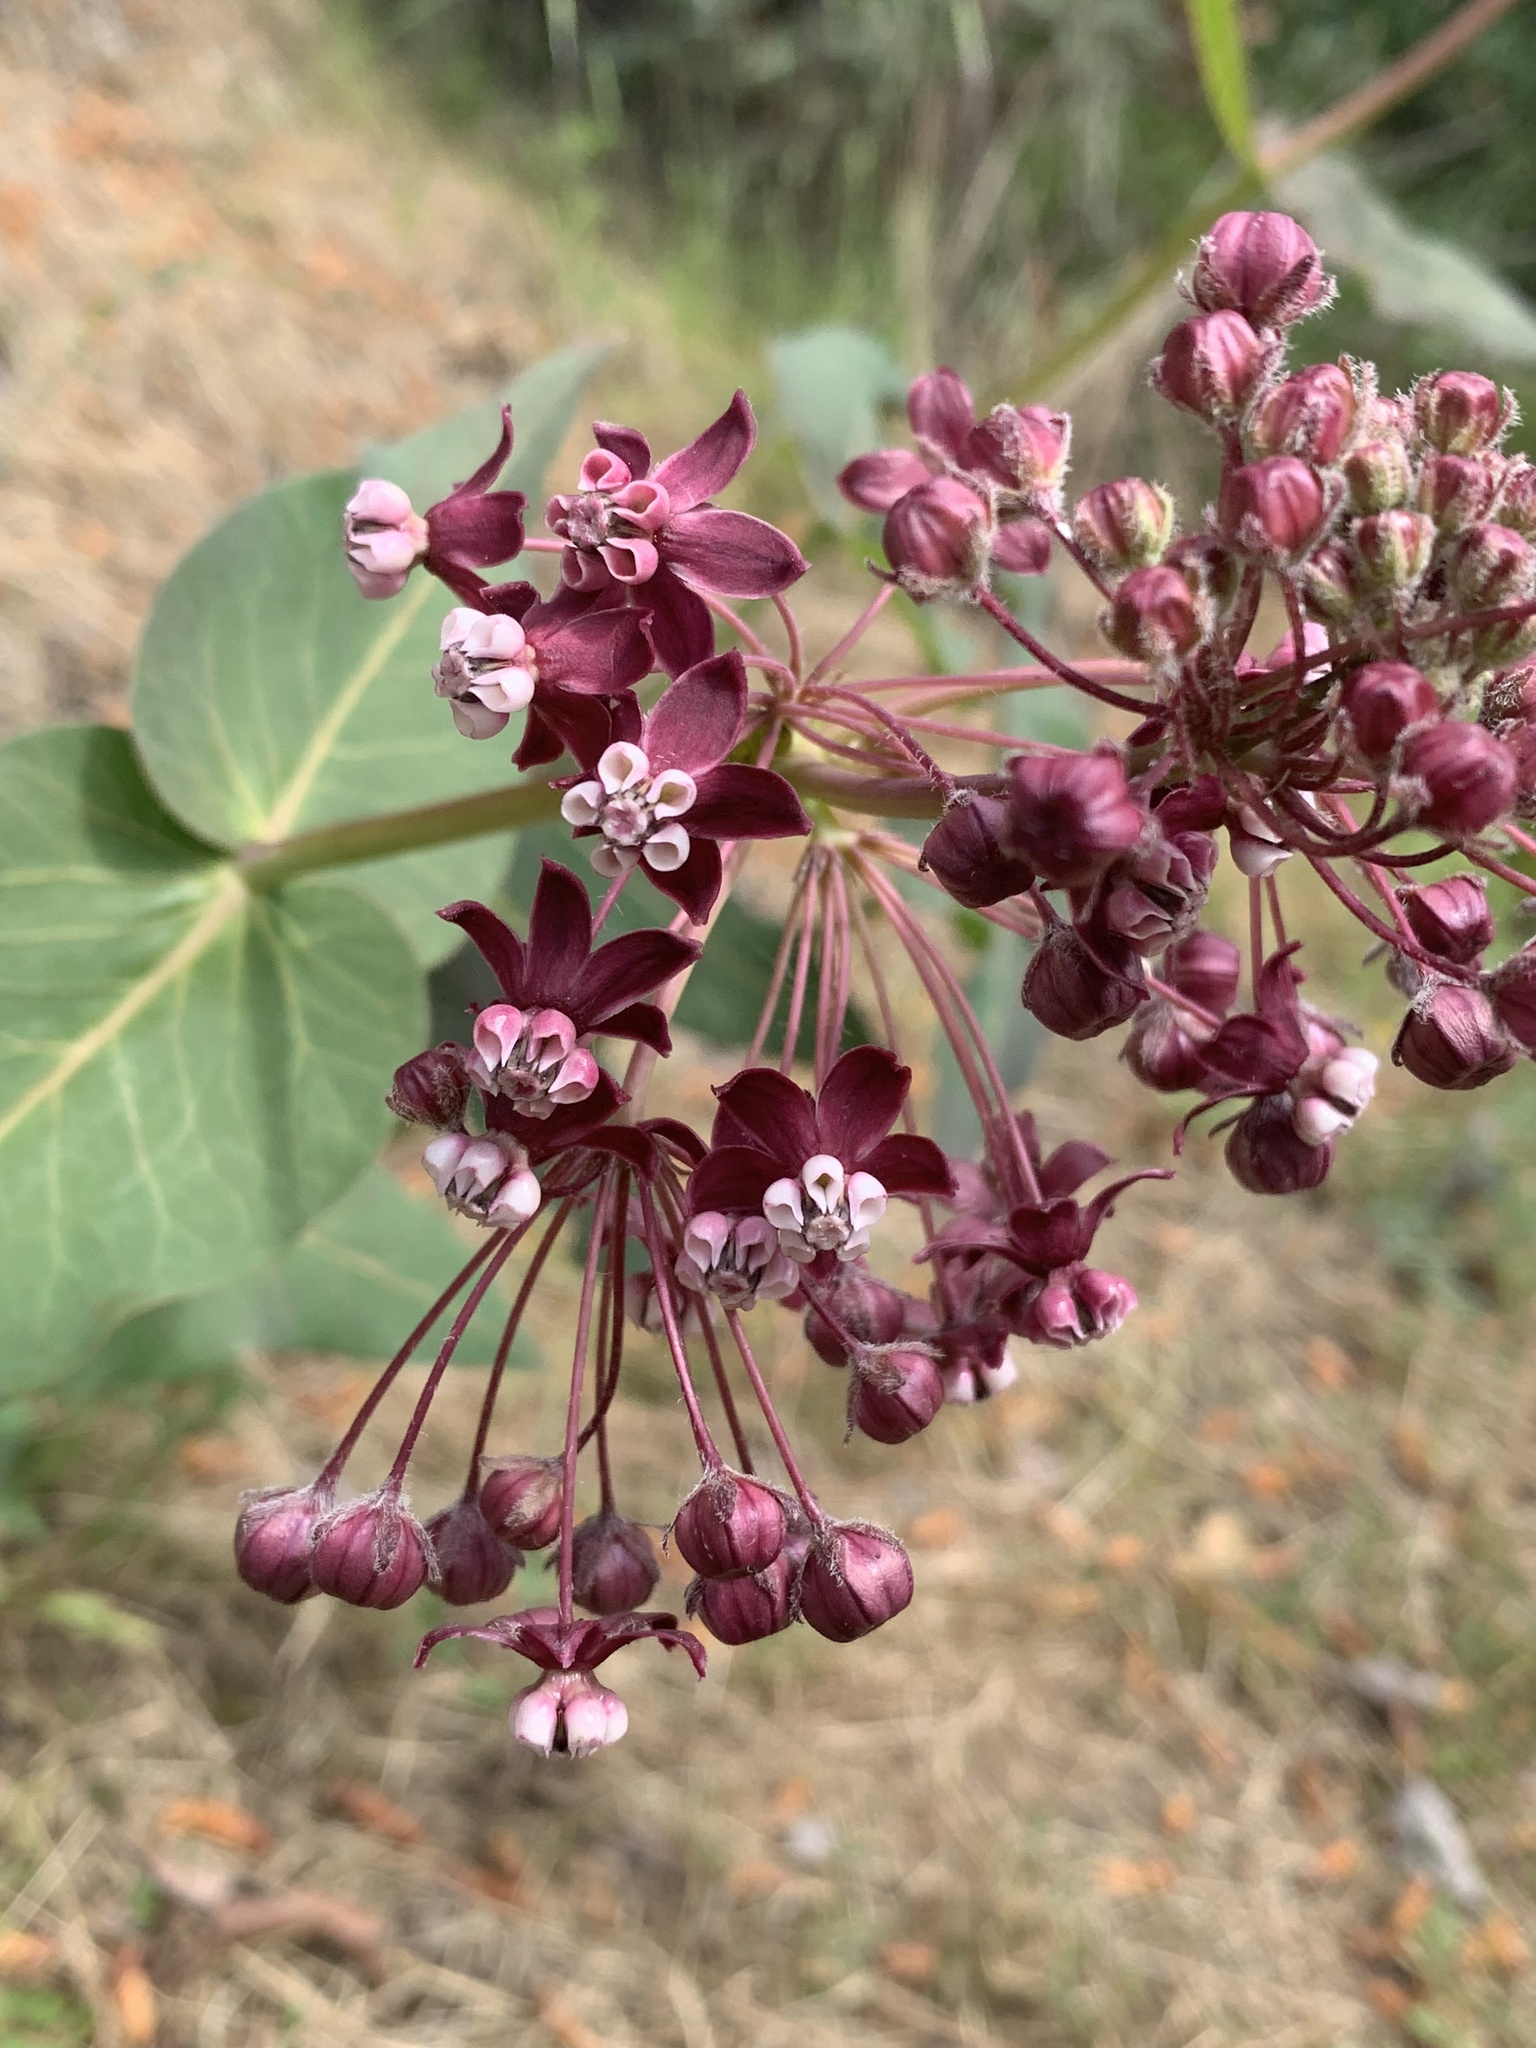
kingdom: Plantae
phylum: Tracheophyta
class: Magnoliopsida
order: Gentianales
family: Apocynaceae
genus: Asclepias
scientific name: Asclepias cordifolia
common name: Purple milkweed
